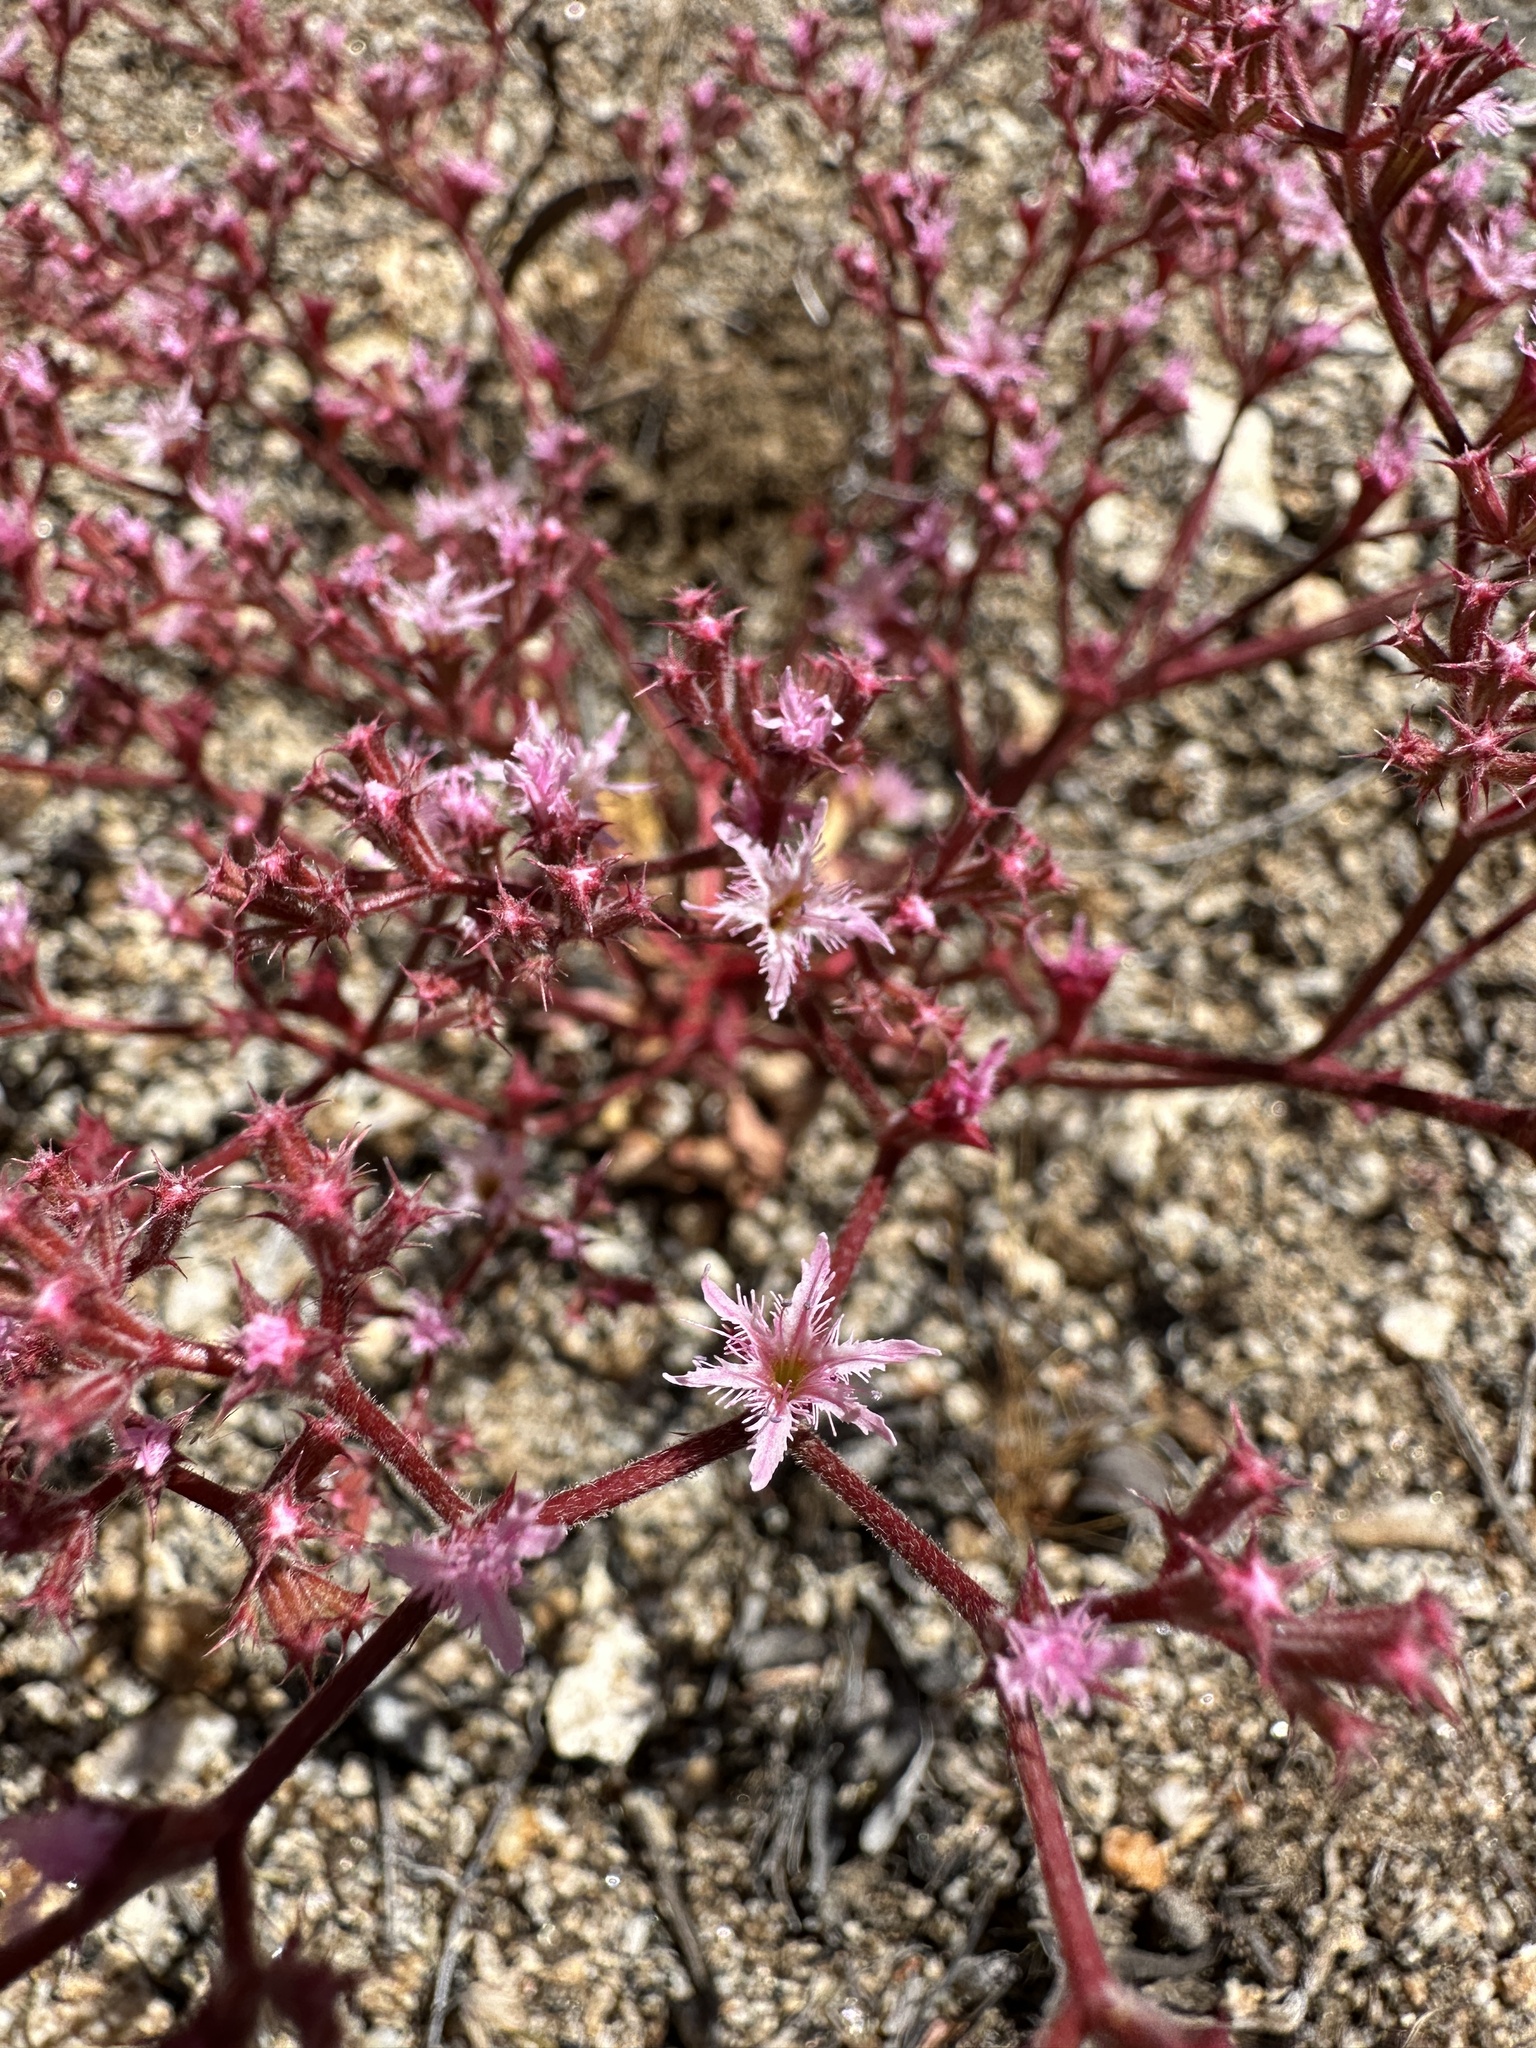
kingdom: Plantae
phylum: Tracheophyta
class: Magnoliopsida
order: Caryophyllales
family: Polygonaceae
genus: Chorizanthe
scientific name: Chorizanthe fimbriata
